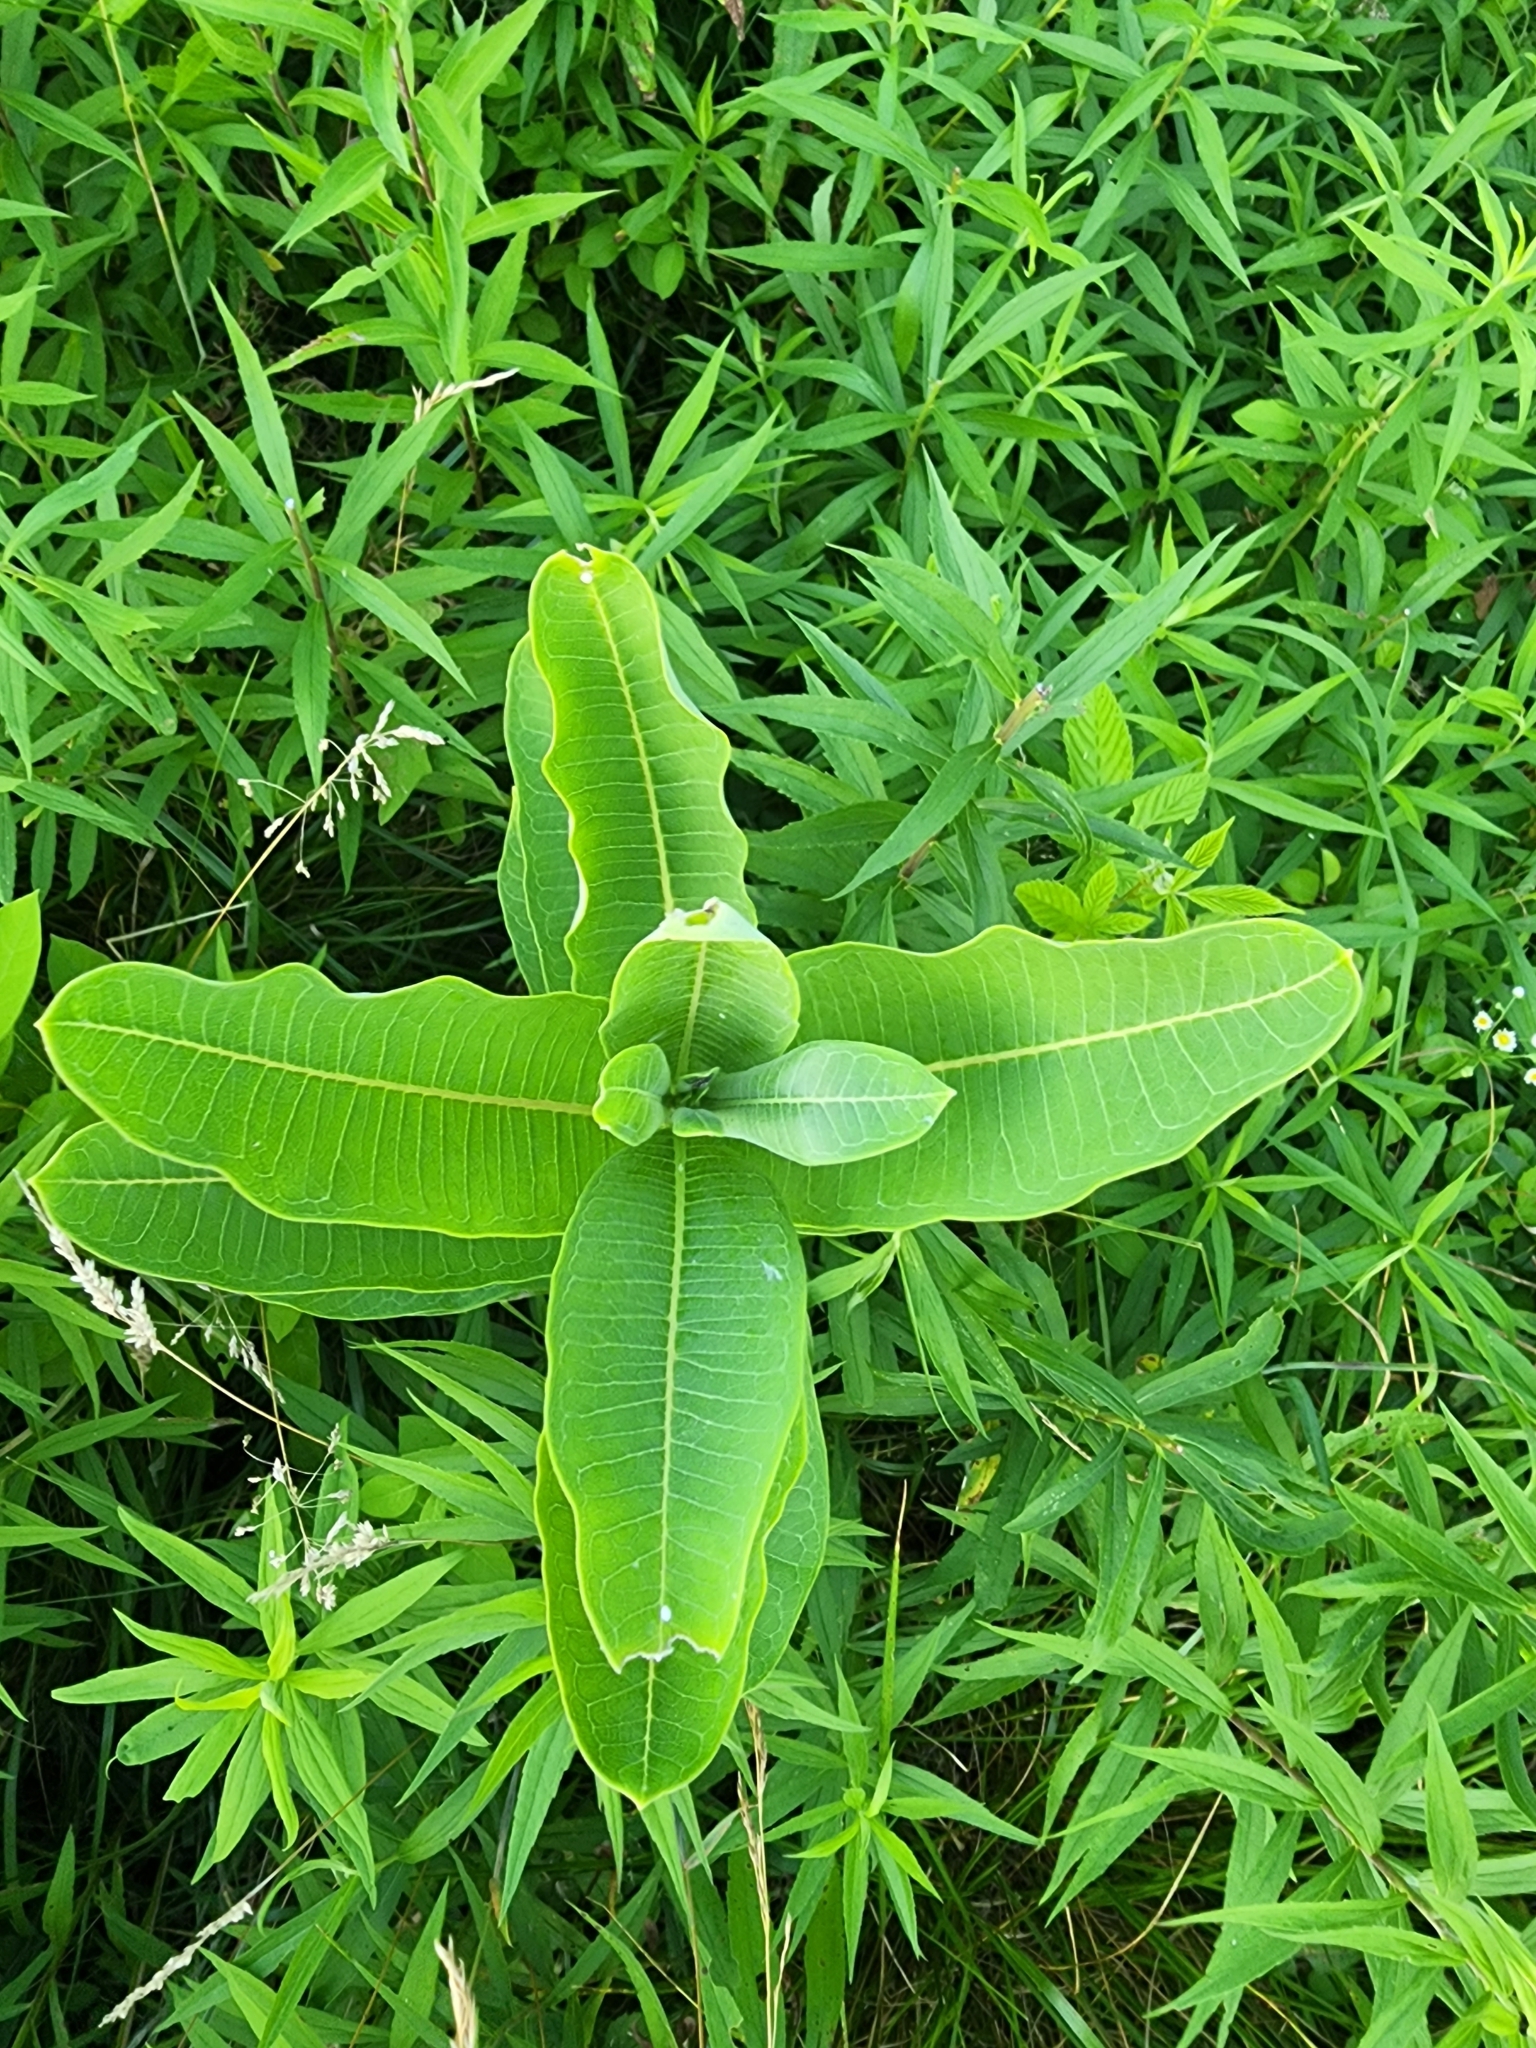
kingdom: Plantae
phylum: Tracheophyta
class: Magnoliopsida
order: Gentianales
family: Apocynaceae
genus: Asclepias
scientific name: Asclepias syriaca
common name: Common milkweed
